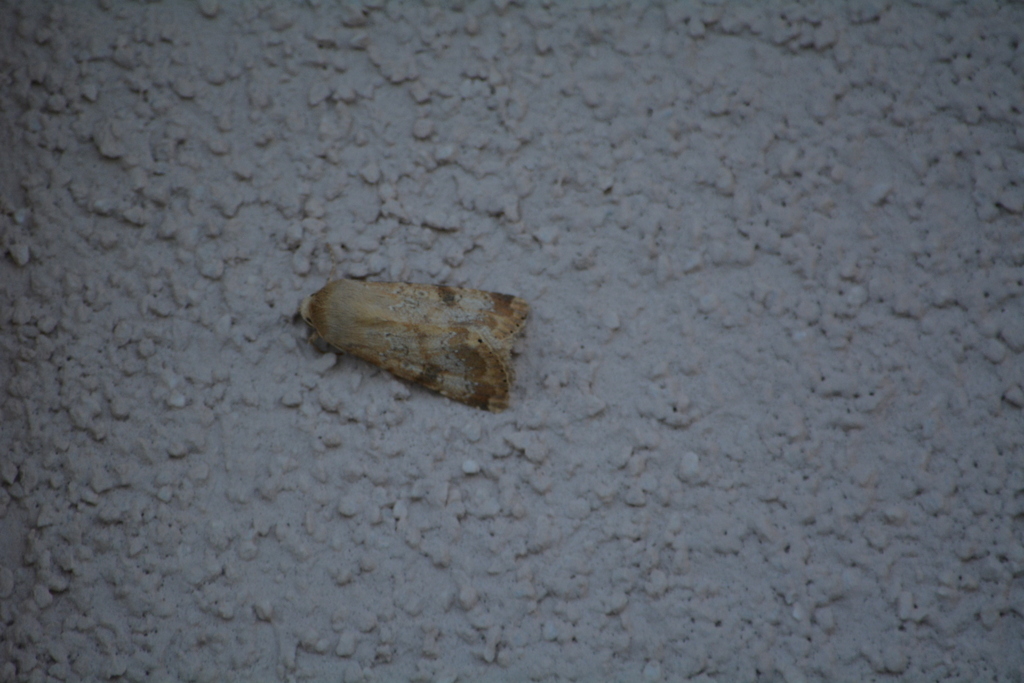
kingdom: Animalia
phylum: Arthropoda
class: Insecta
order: Lepidoptera
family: Noctuidae
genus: Heliothis
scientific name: Heliothis peltigera
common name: Bordered straw
